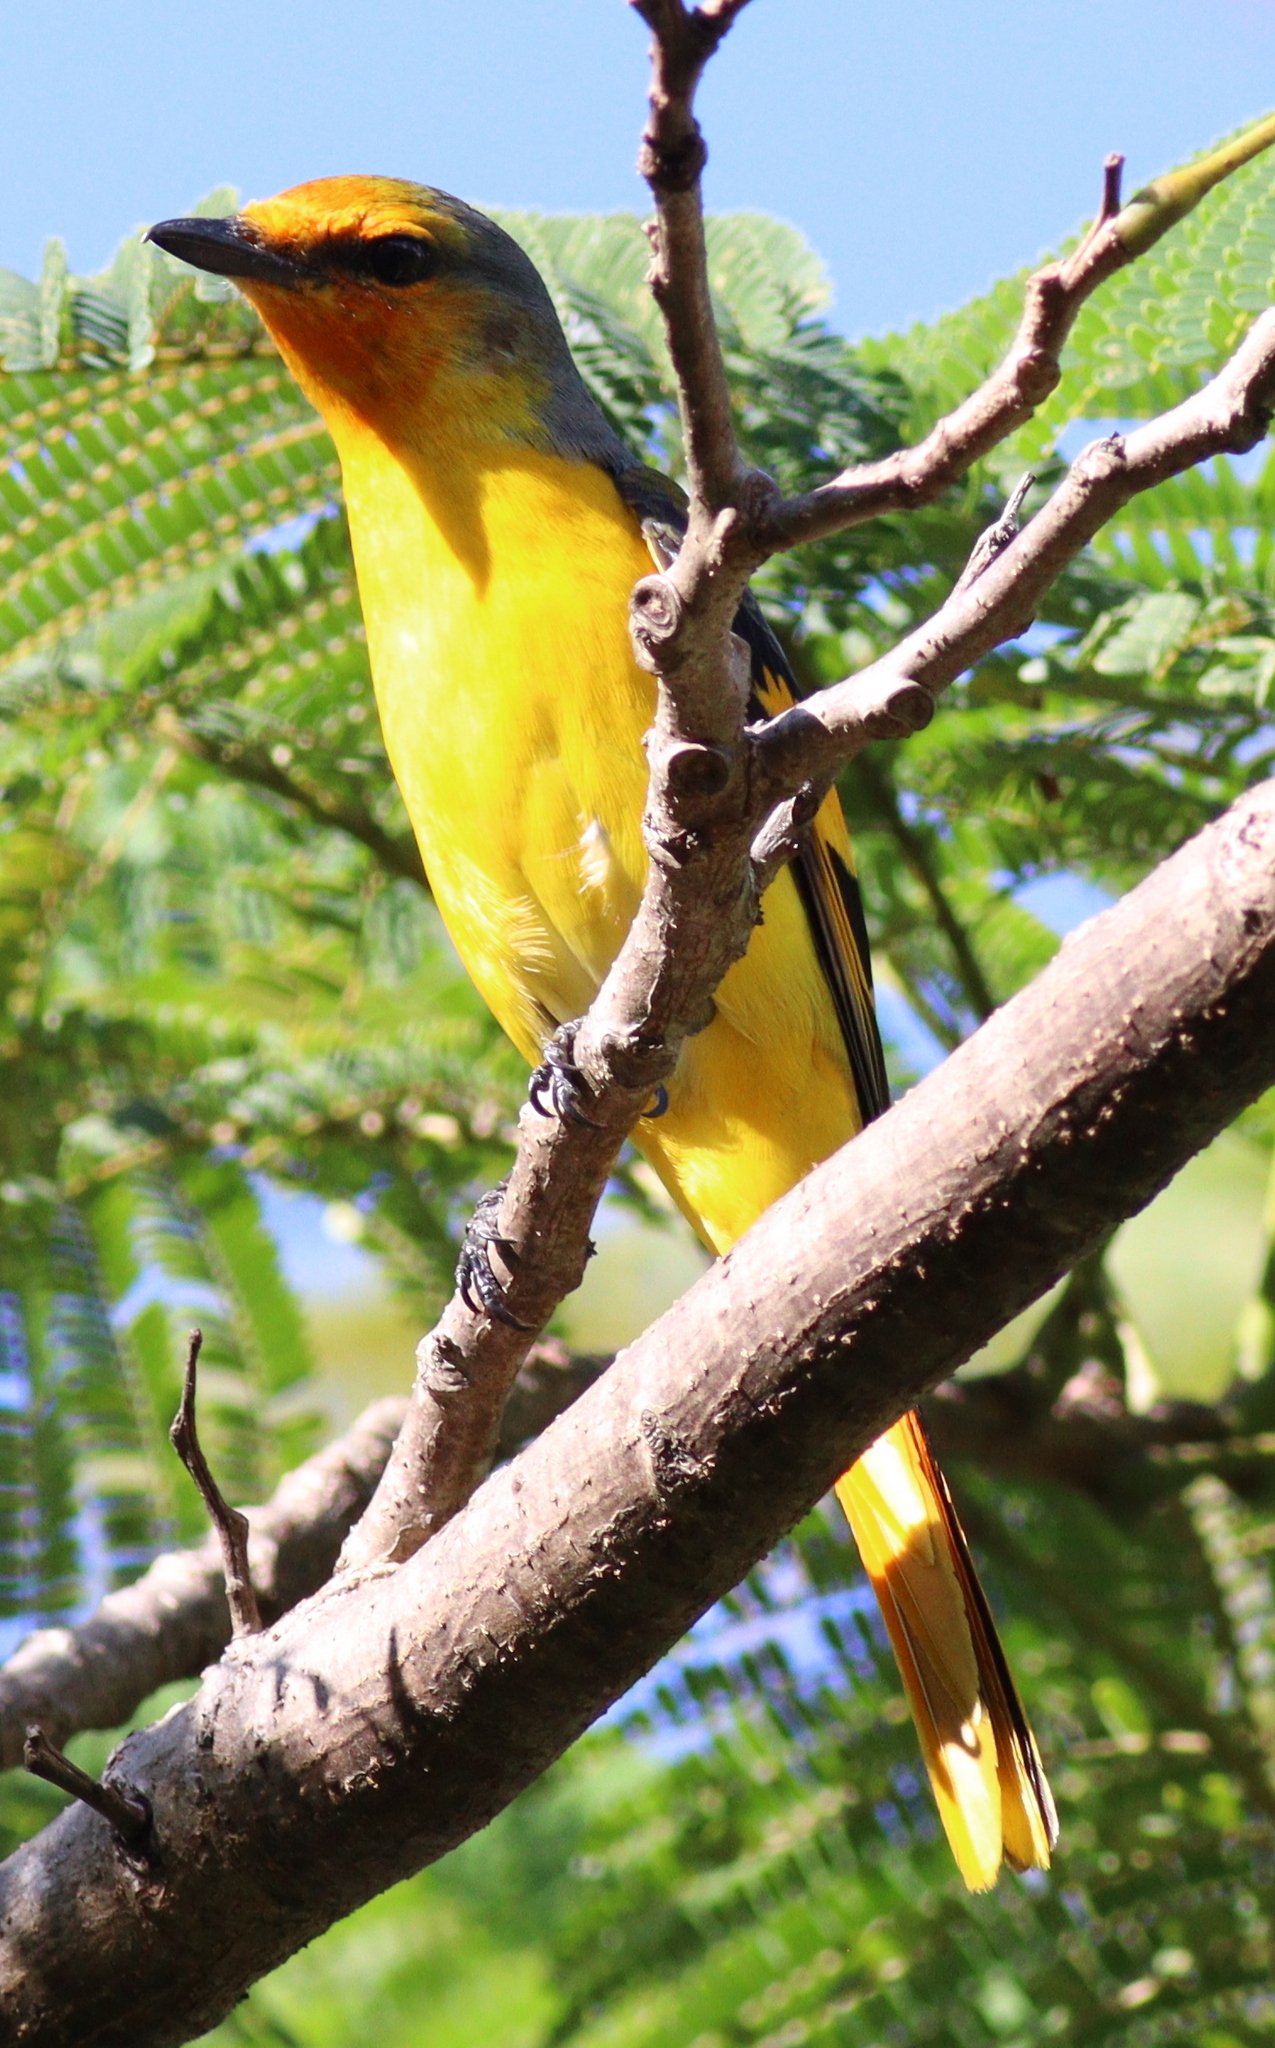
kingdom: Animalia
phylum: Chordata
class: Aves
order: Passeriformes
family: Campephagidae
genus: Pericrocotus
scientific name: Pericrocotus speciosus
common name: Scarlet minivet
